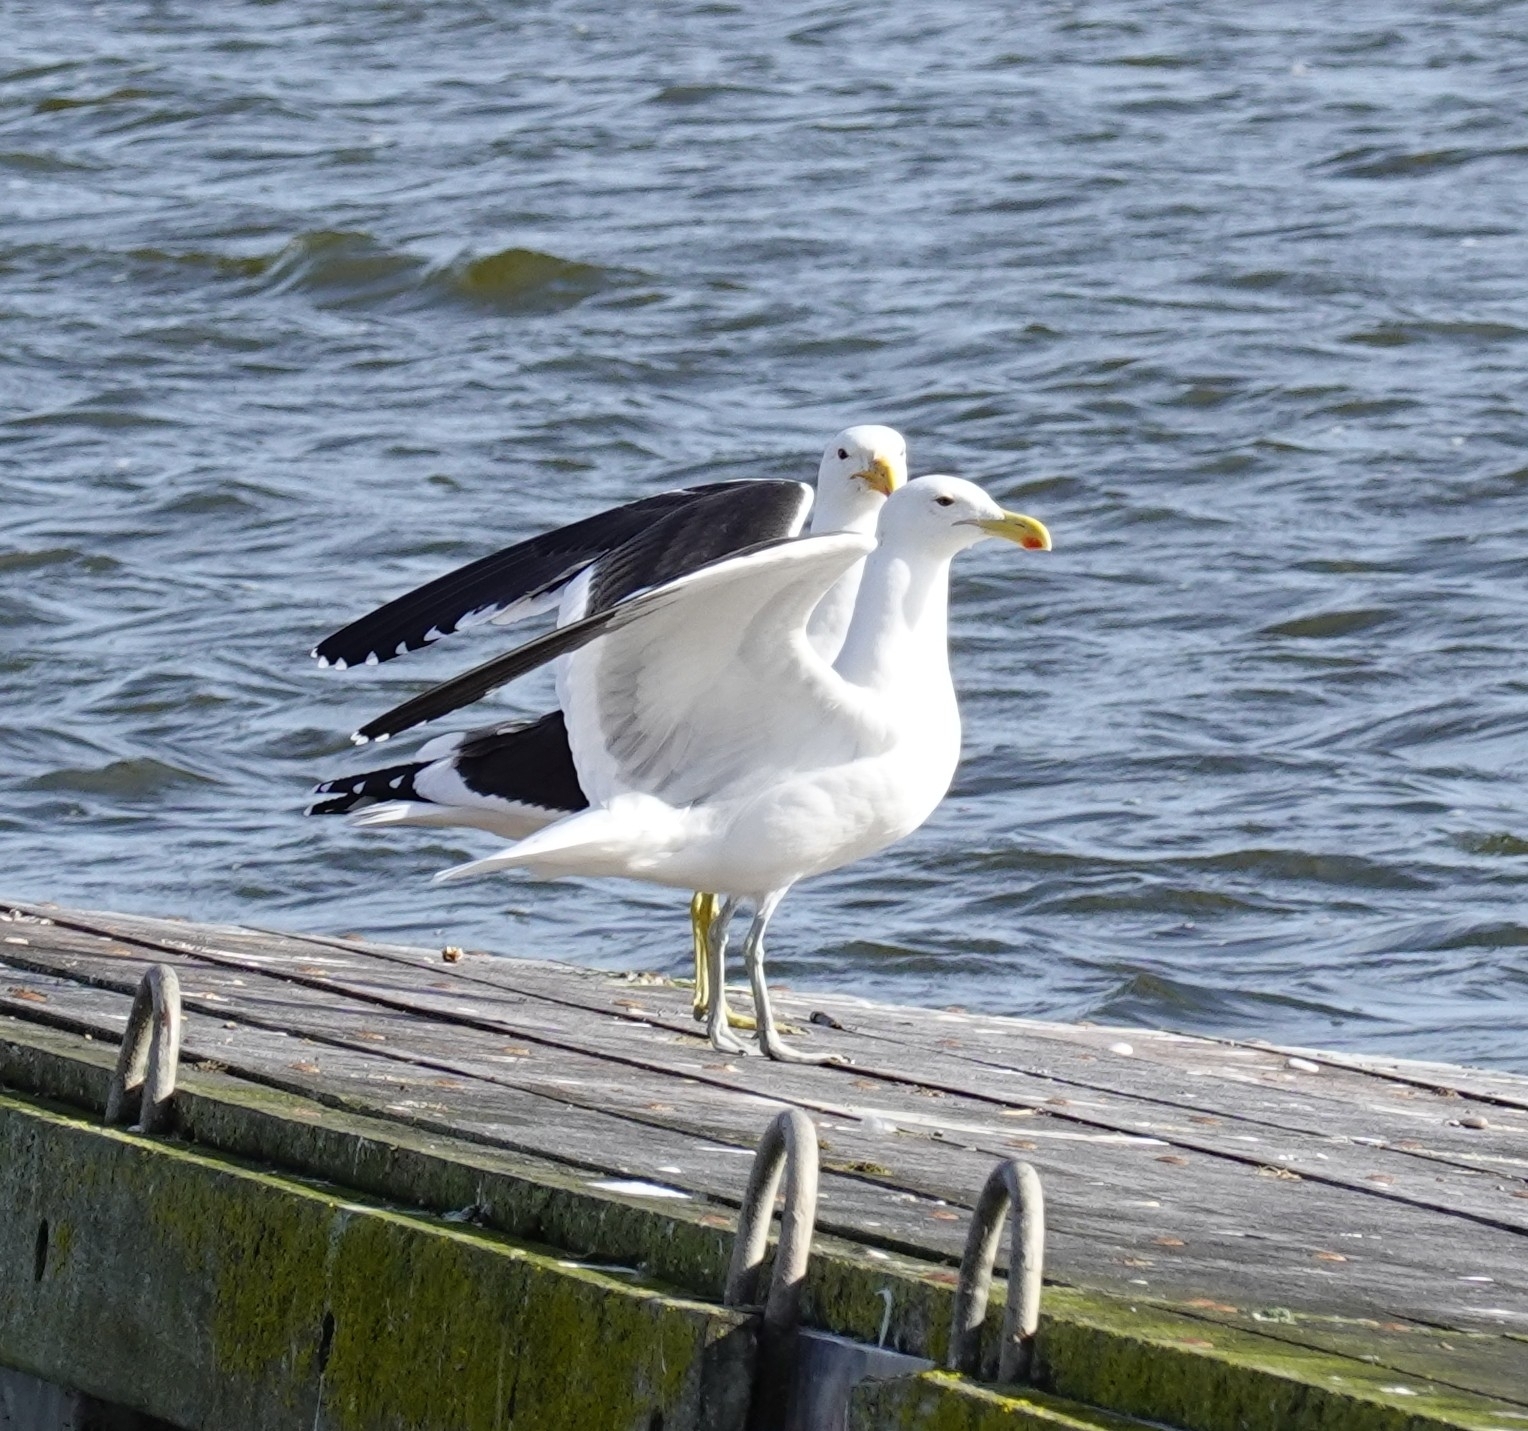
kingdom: Animalia
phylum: Chordata
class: Aves
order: Charadriiformes
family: Laridae
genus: Larus
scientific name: Larus dominicanus
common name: Kelp gull
